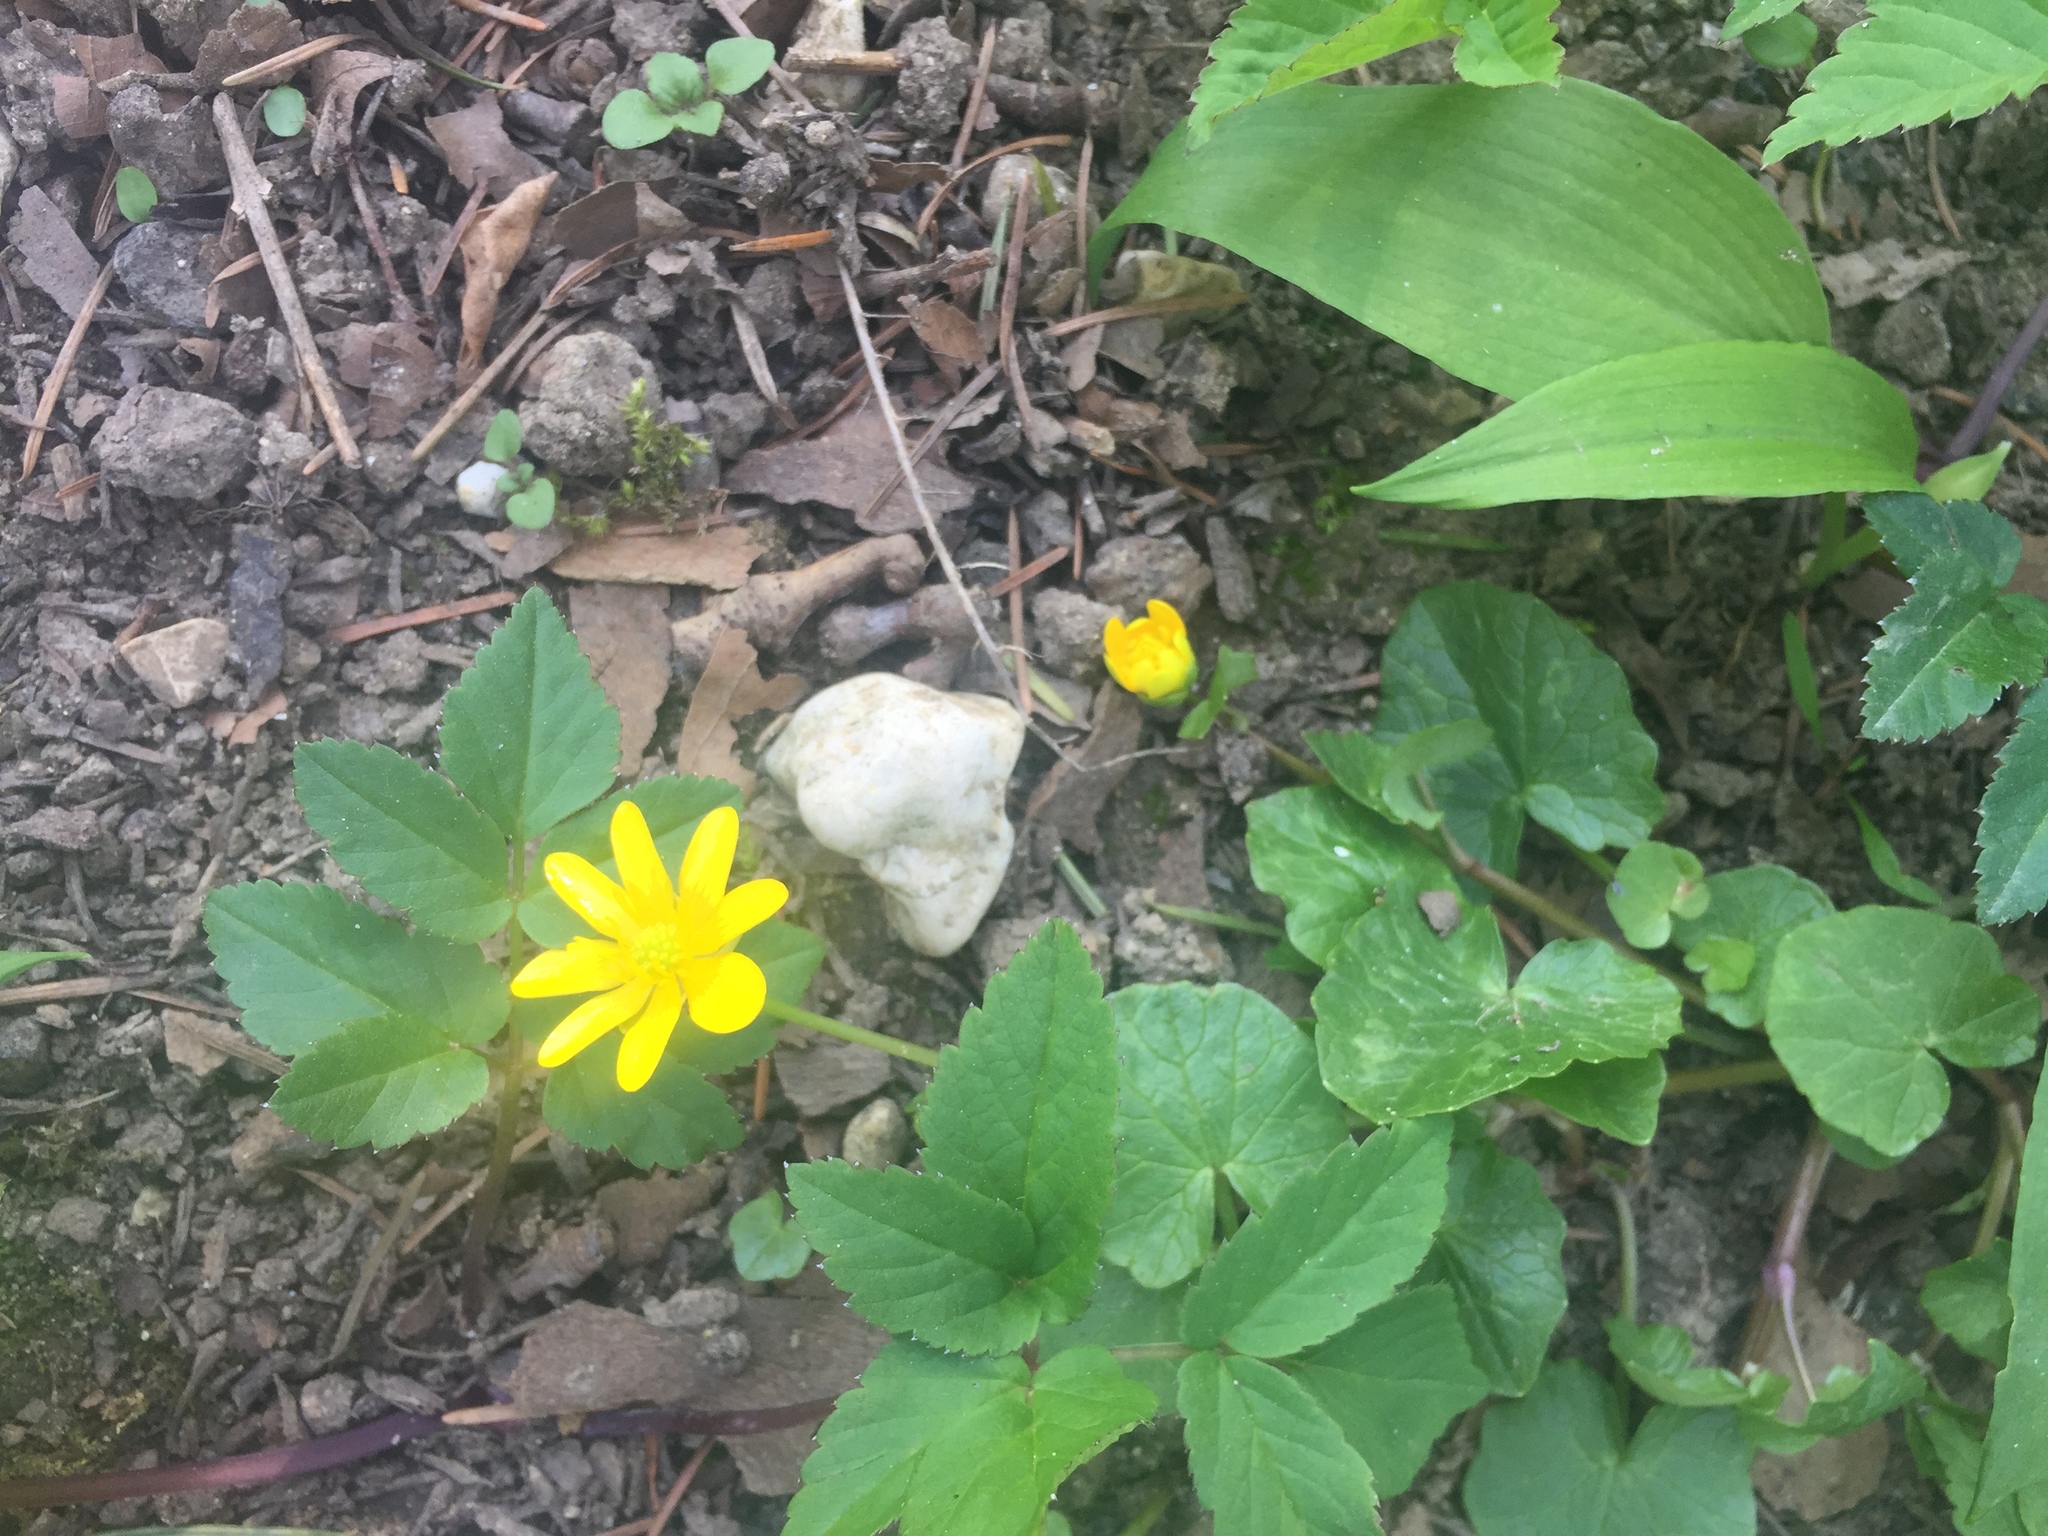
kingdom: Plantae
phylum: Tracheophyta
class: Magnoliopsida
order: Ranunculales
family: Ranunculaceae
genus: Ficaria
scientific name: Ficaria verna
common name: Lesser celandine
